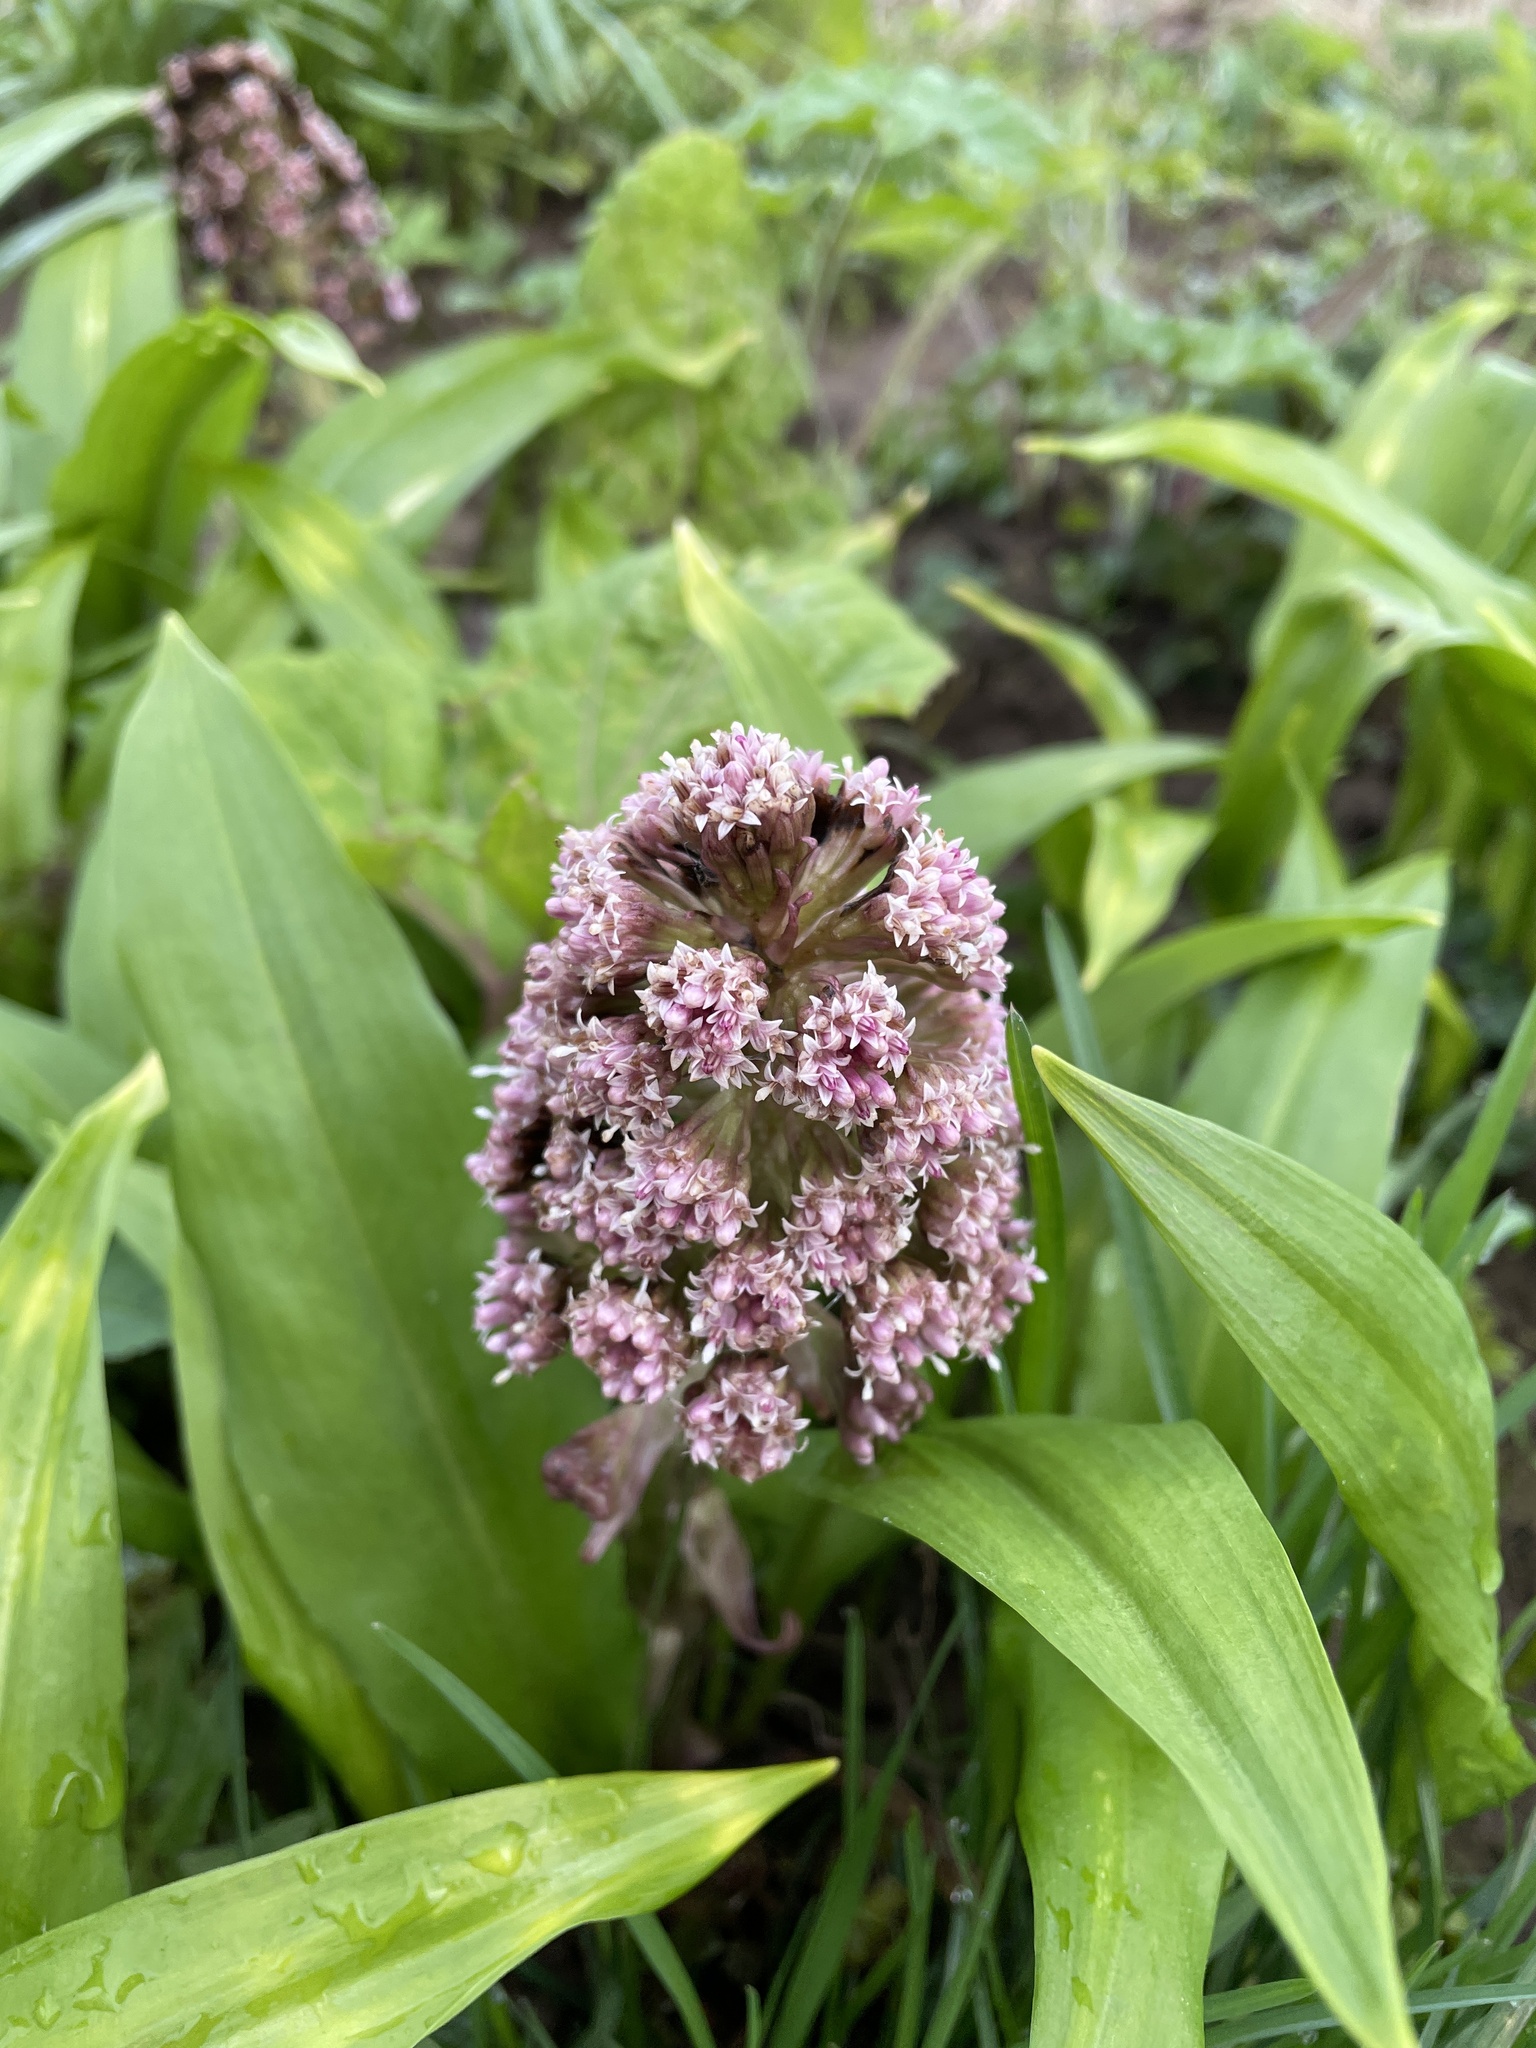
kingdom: Plantae
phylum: Tracheophyta
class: Magnoliopsida
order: Asterales
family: Asteraceae
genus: Petasites
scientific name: Petasites hybridus
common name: Butterbur
